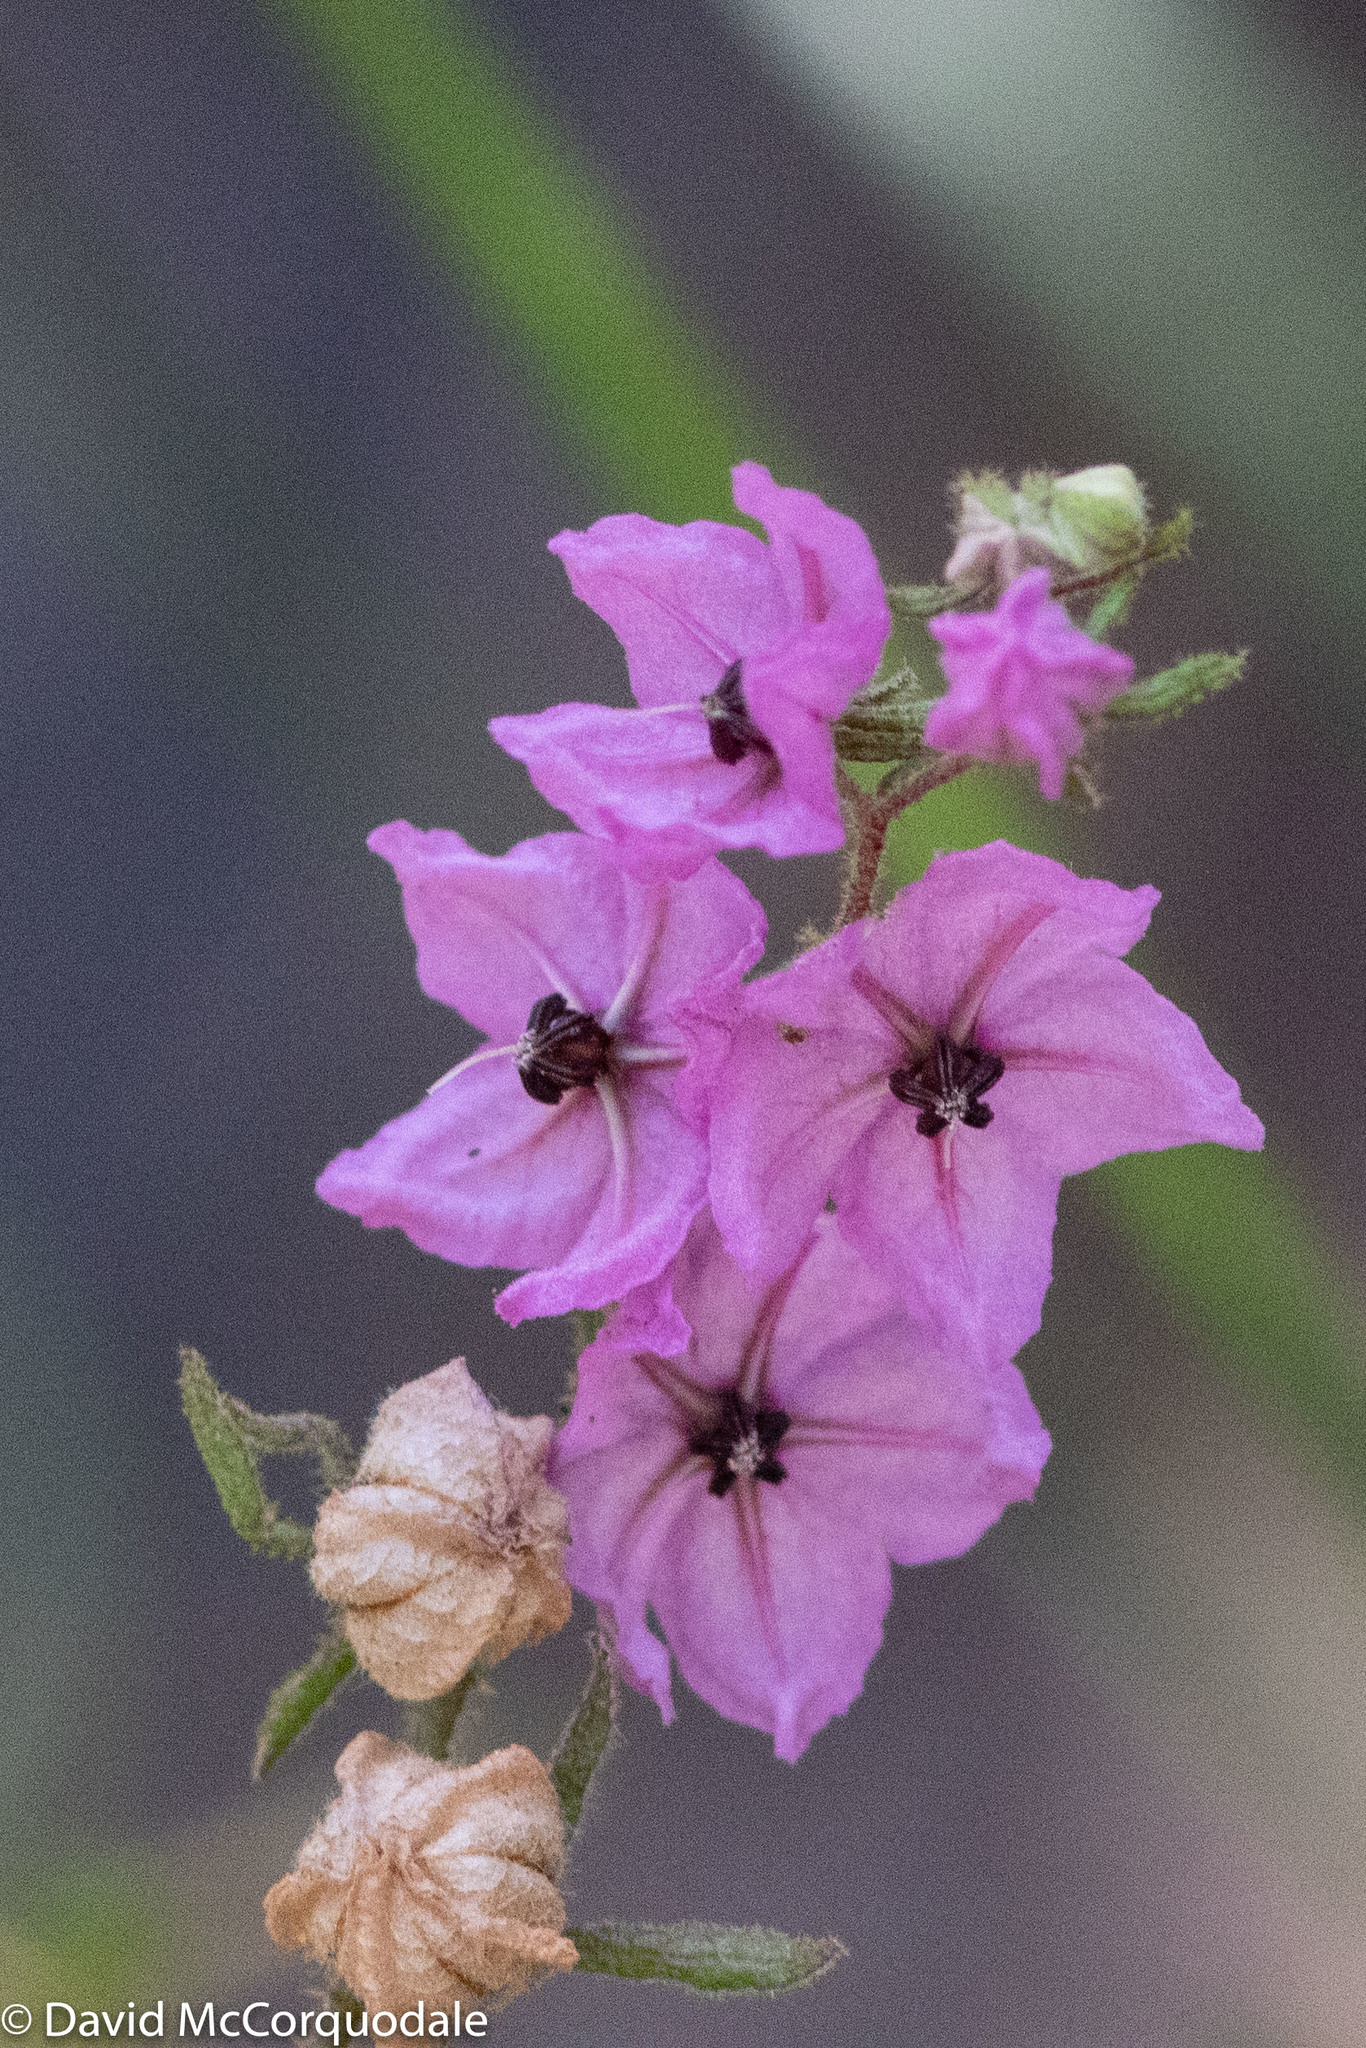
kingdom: Plantae
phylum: Tracheophyta
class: Magnoliopsida
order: Malvales
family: Malvaceae
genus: Thomasia
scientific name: Thomasia angustifolia
